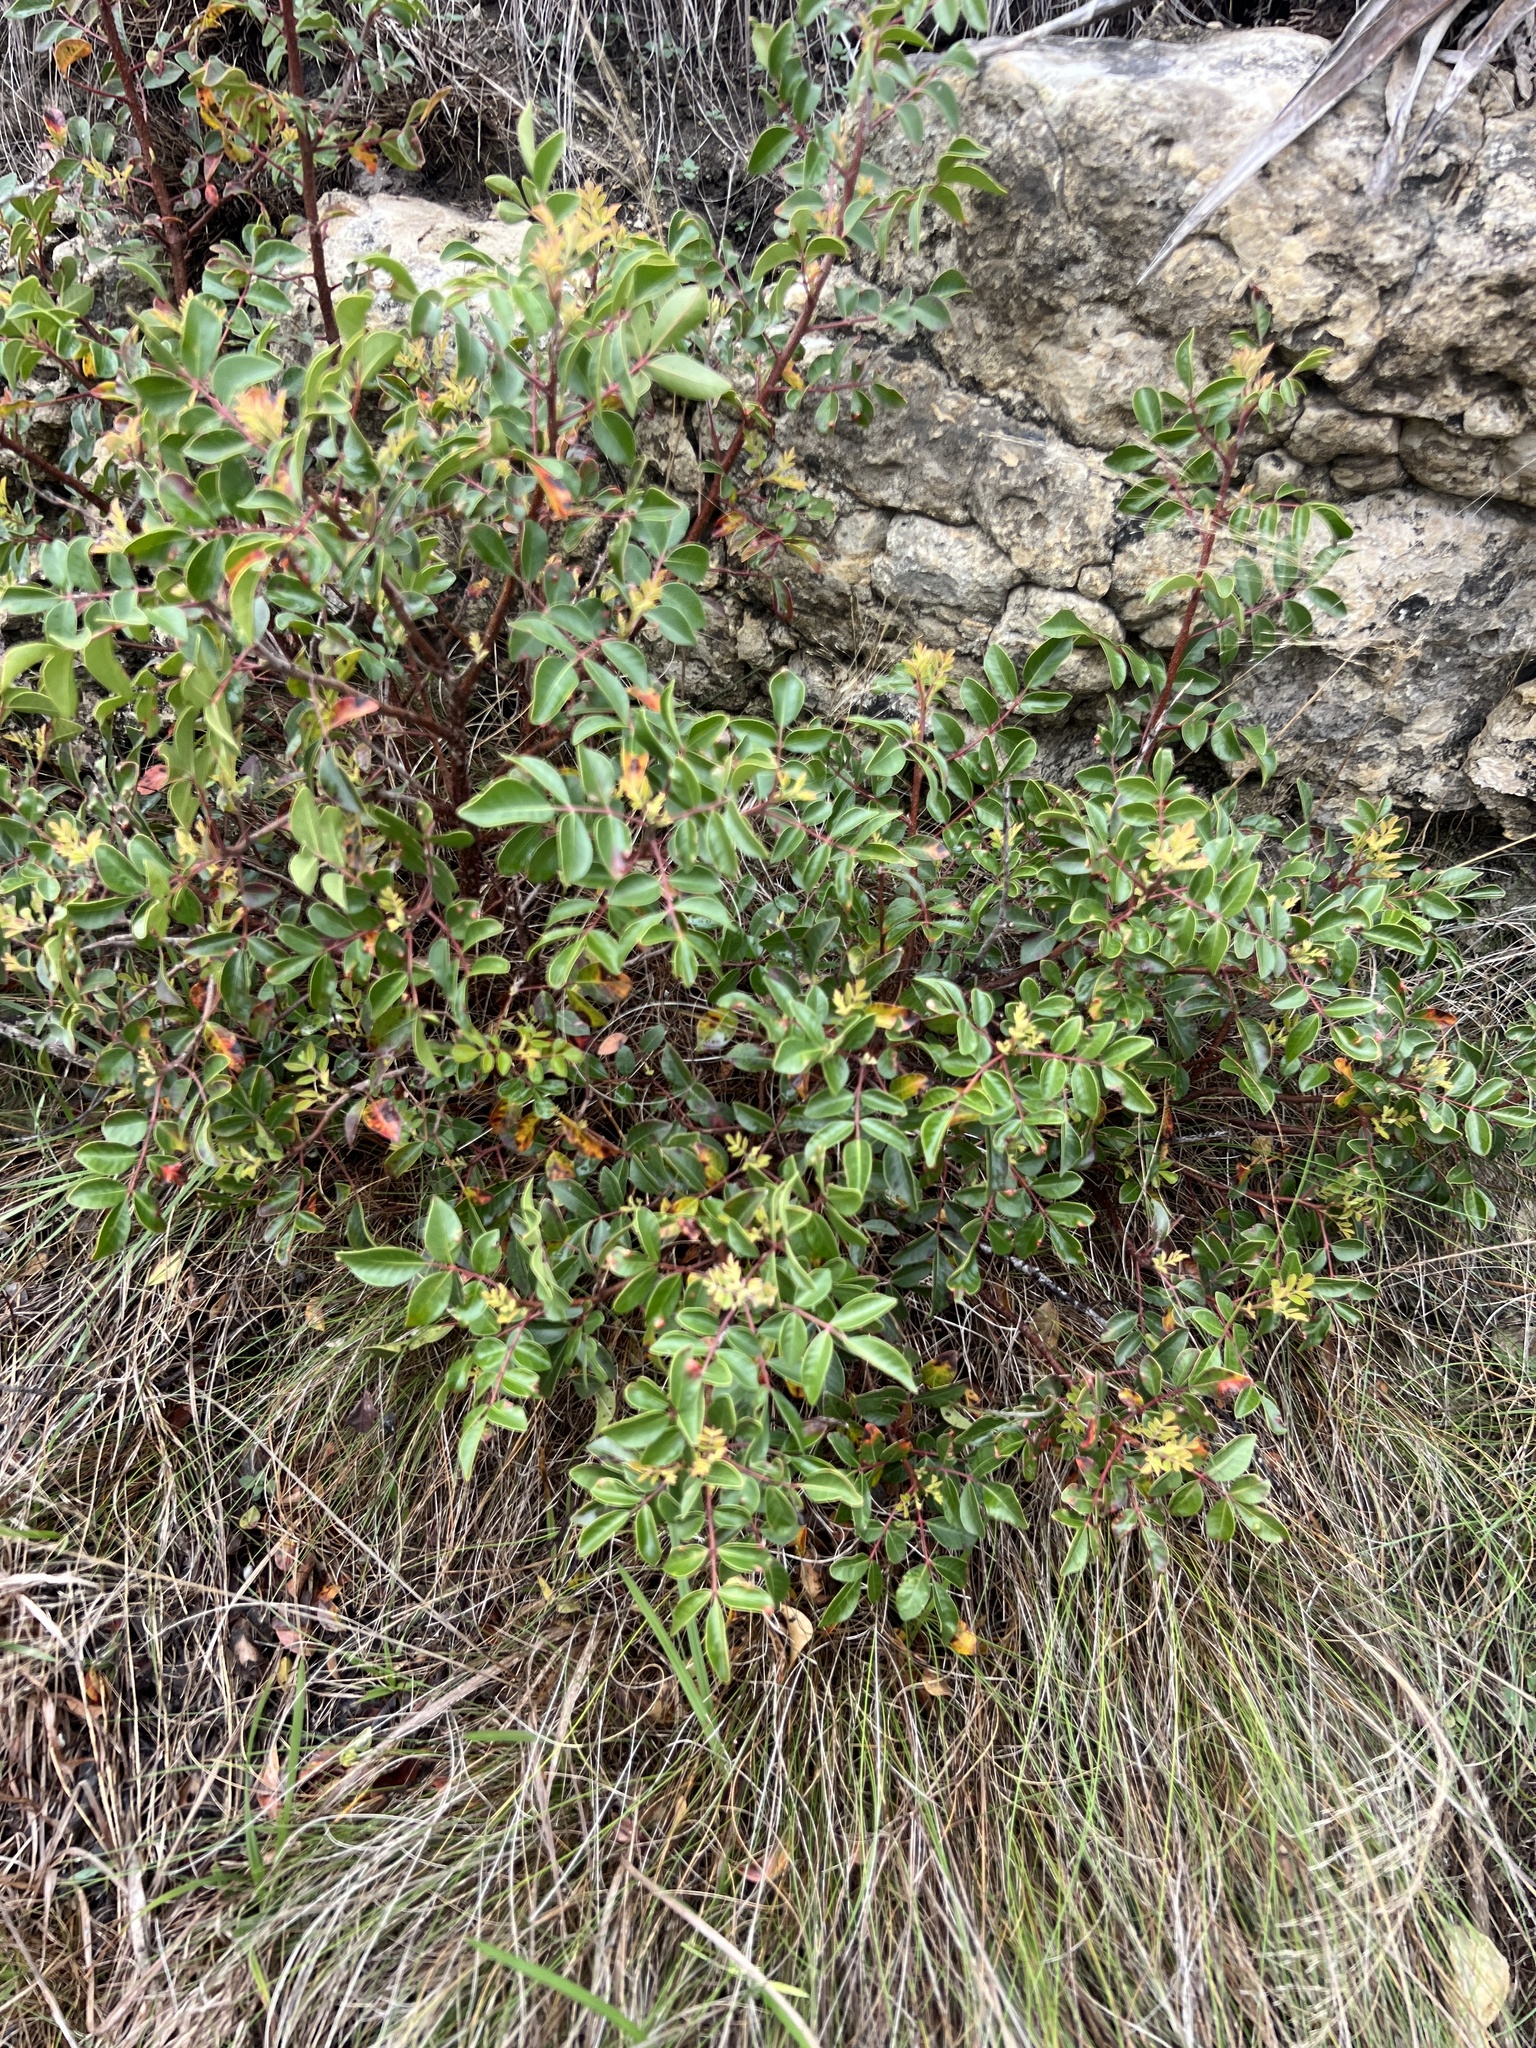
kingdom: Plantae
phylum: Tracheophyta
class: Magnoliopsida
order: Sapindales
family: Anacardiaceae
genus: Rhus
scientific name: Rhus virens
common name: Evergreen sumac
